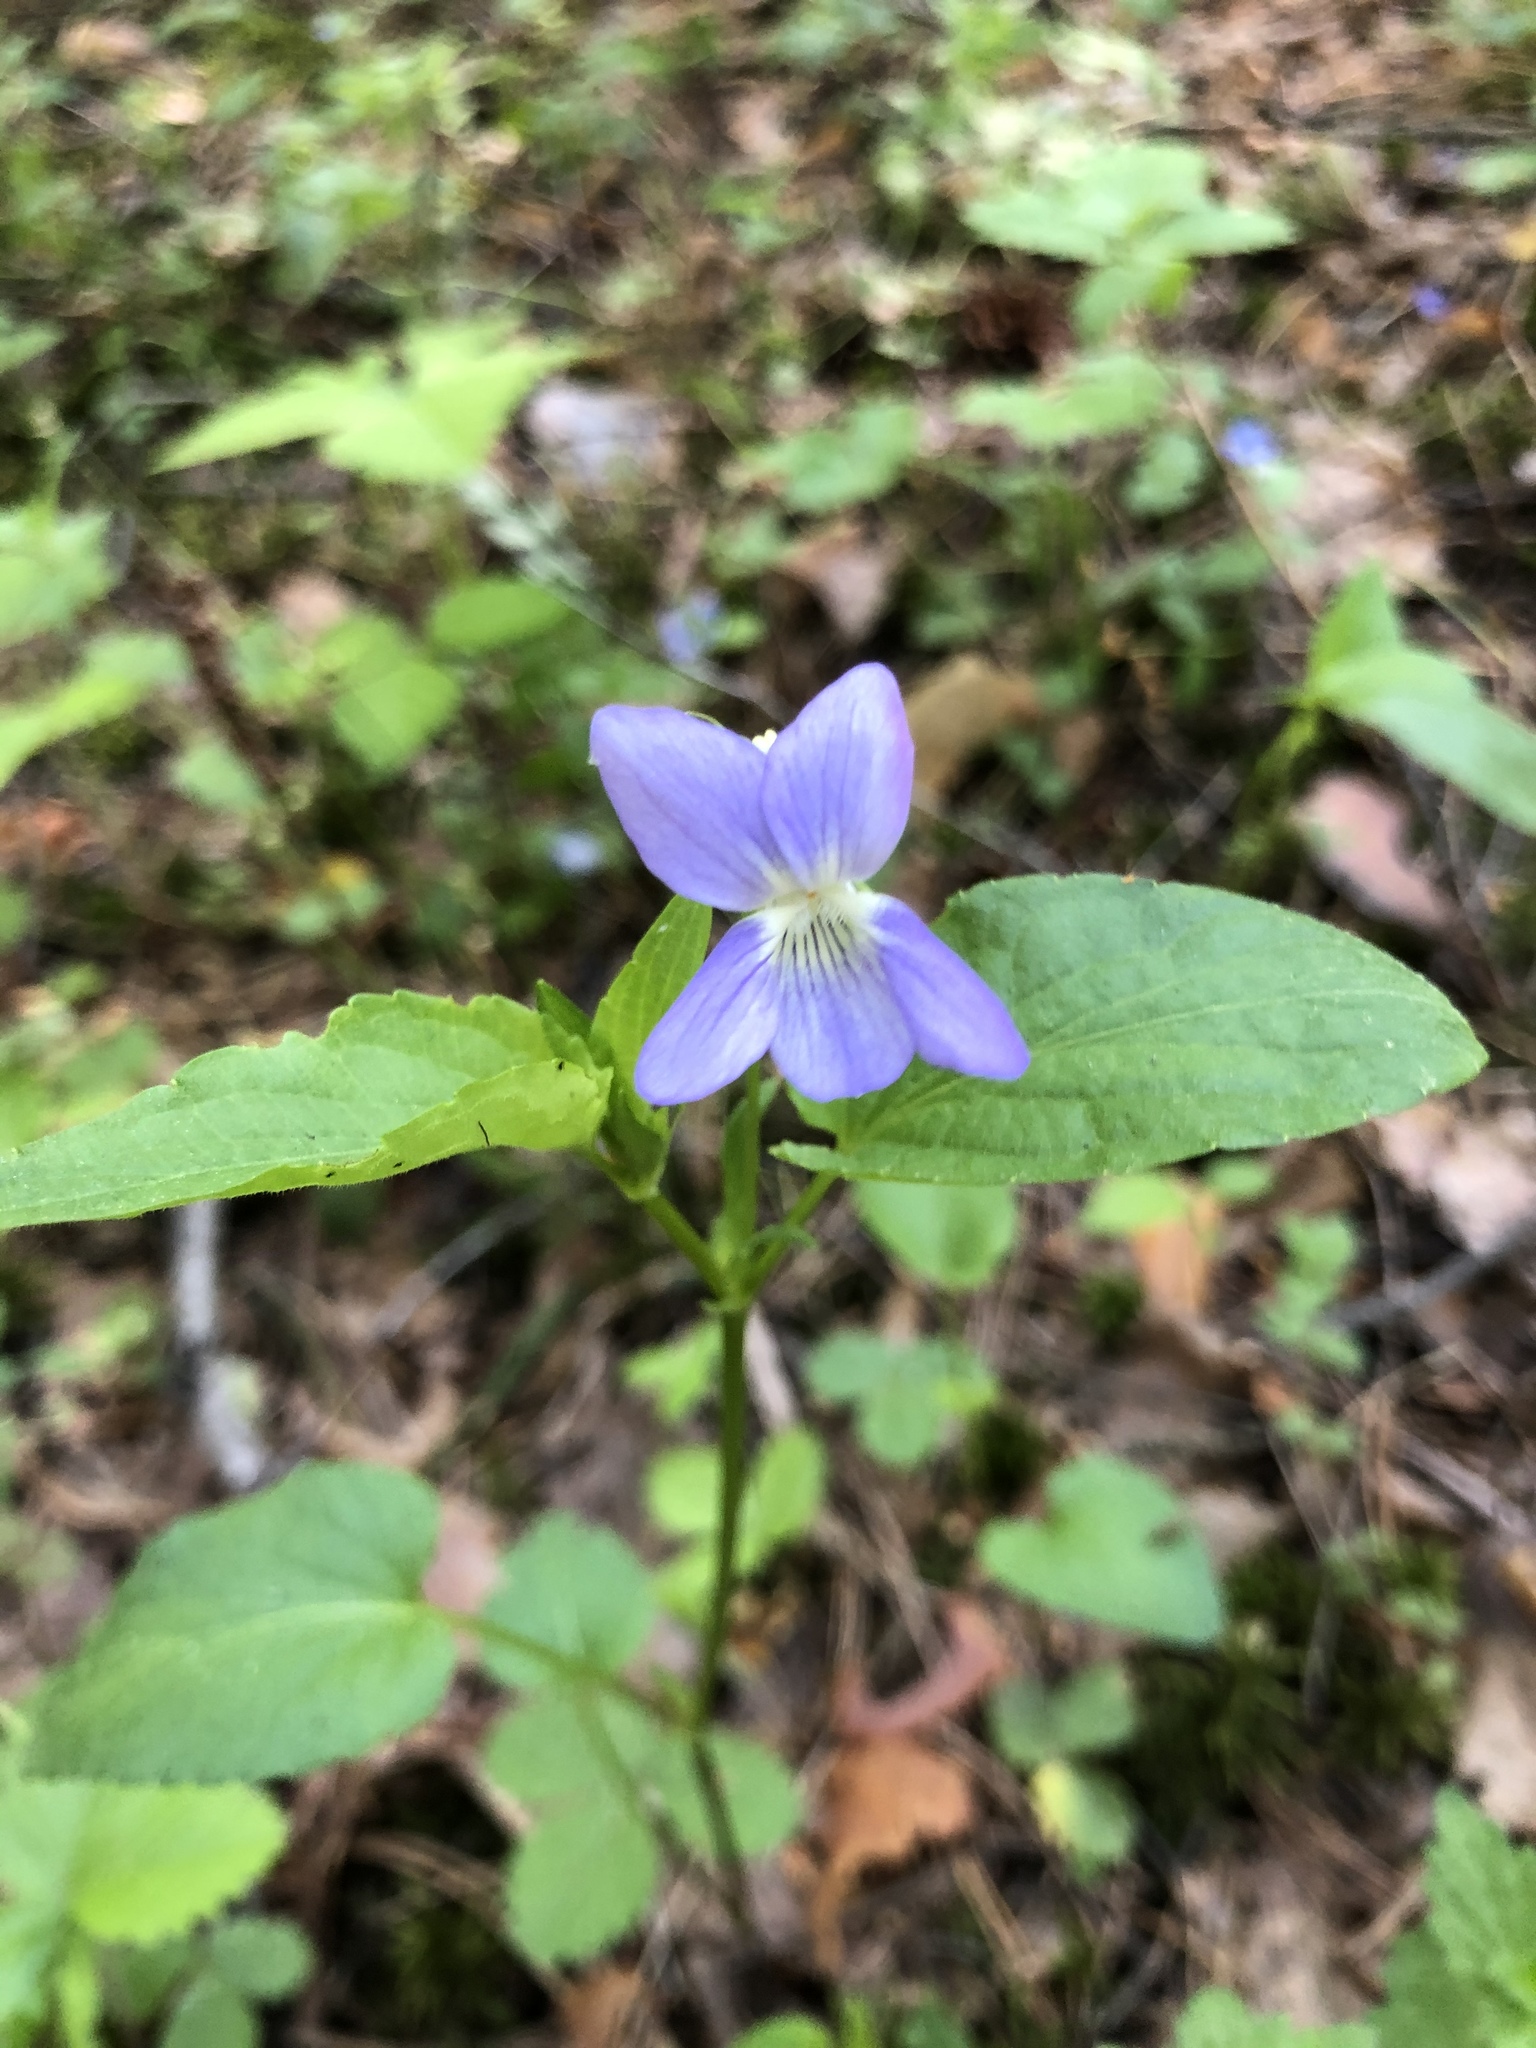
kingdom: Plantae
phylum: Tracheophyta
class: Magnoliopsida
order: Malpighiales
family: Violaceae
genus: Viola
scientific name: Viola
